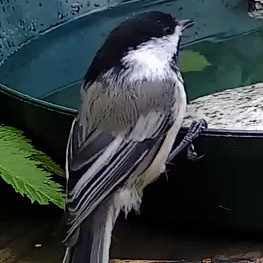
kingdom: Animalia
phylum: Chordata
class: Aves
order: Passeriformes
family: Paridae
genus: Poecile
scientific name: Poecile atricapillus
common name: Black-capped chickadee
